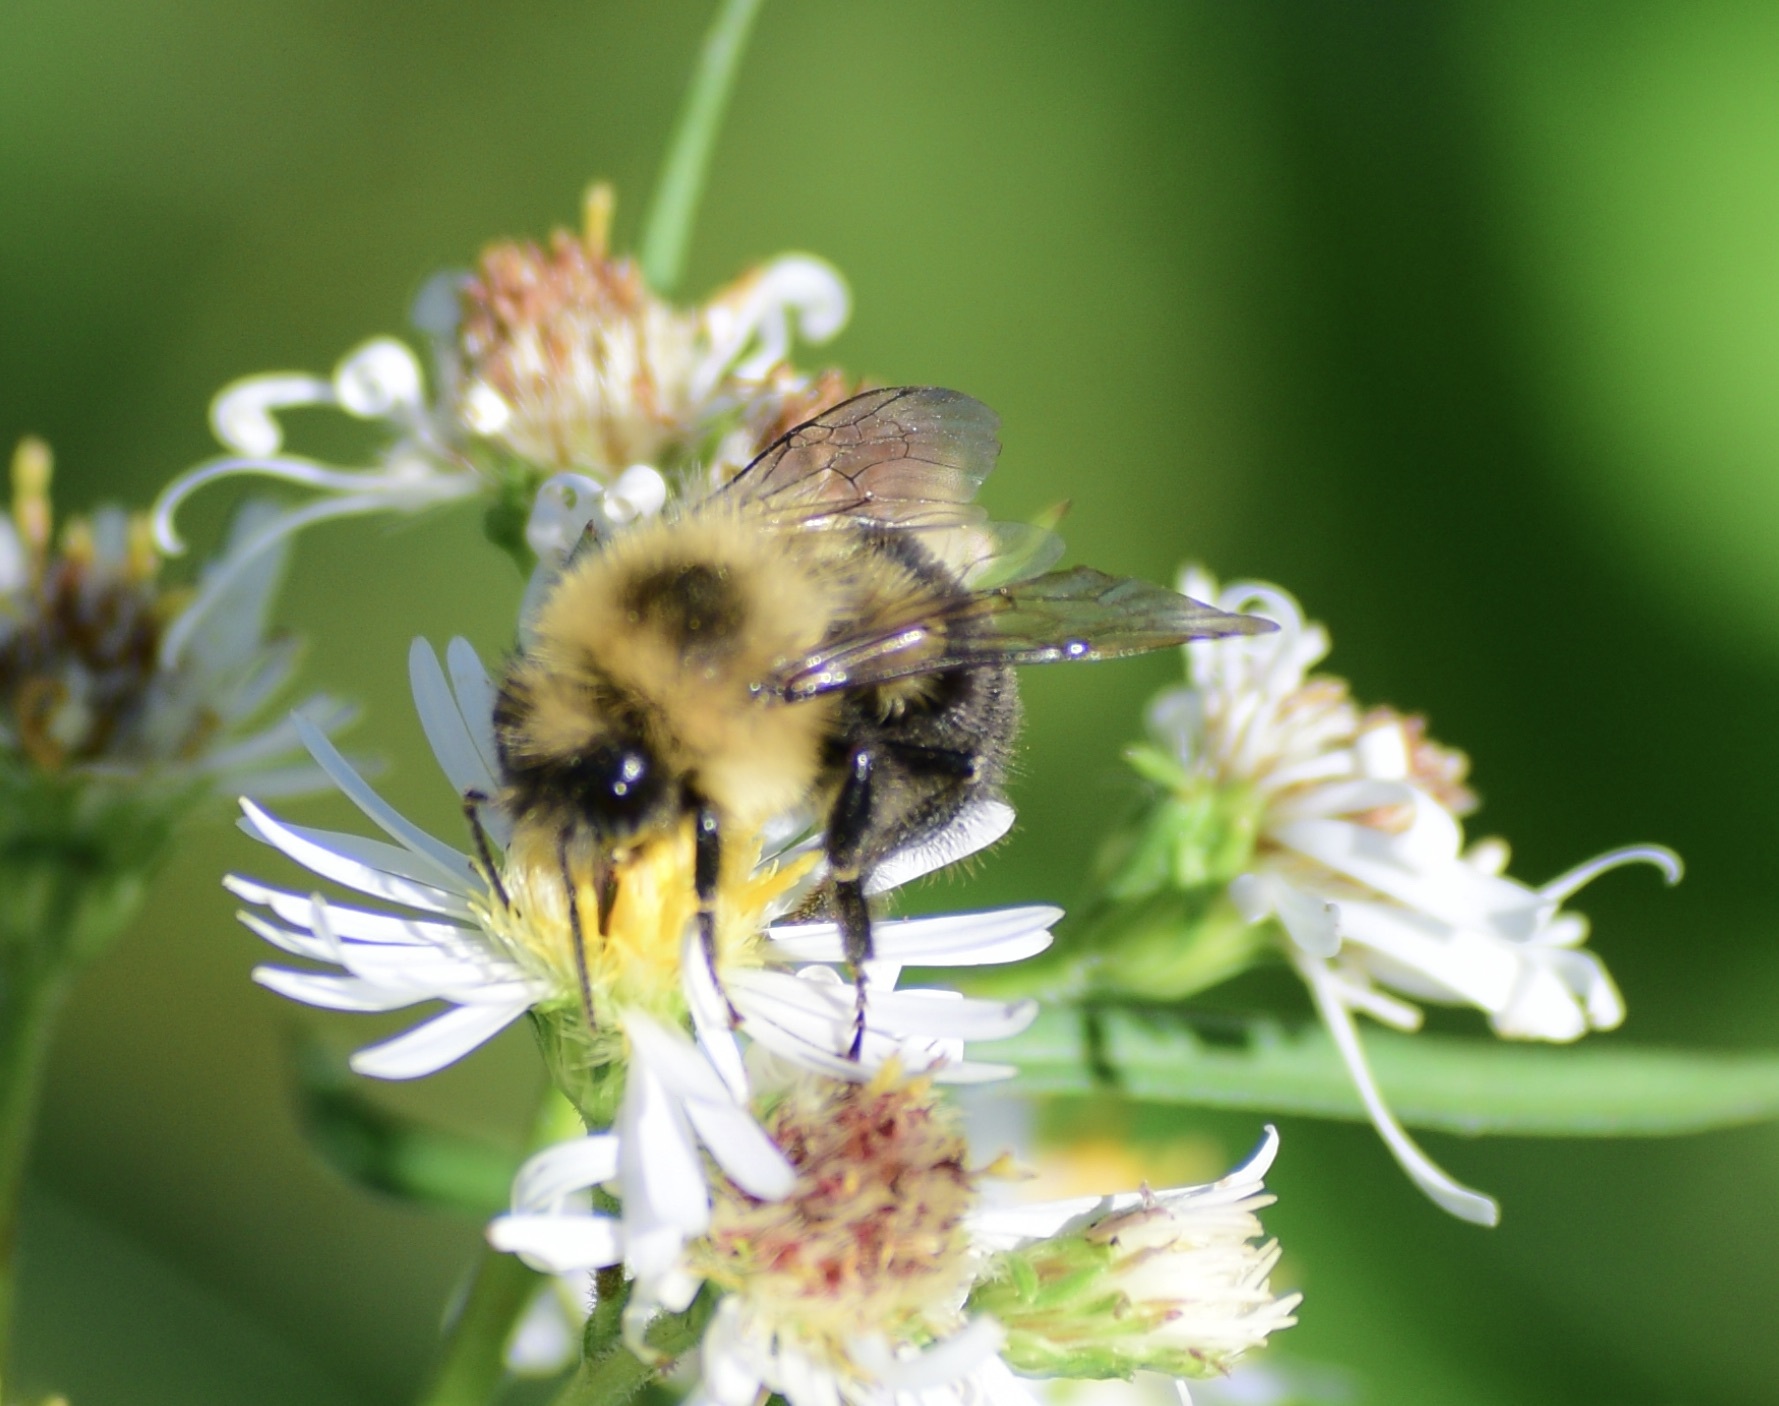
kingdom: Animalia
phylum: Arthropoda
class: Insecta
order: Hymenoptera
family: Apidae
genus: Bombus
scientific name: Bombus impatiens
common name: Common eastern bumble bee
